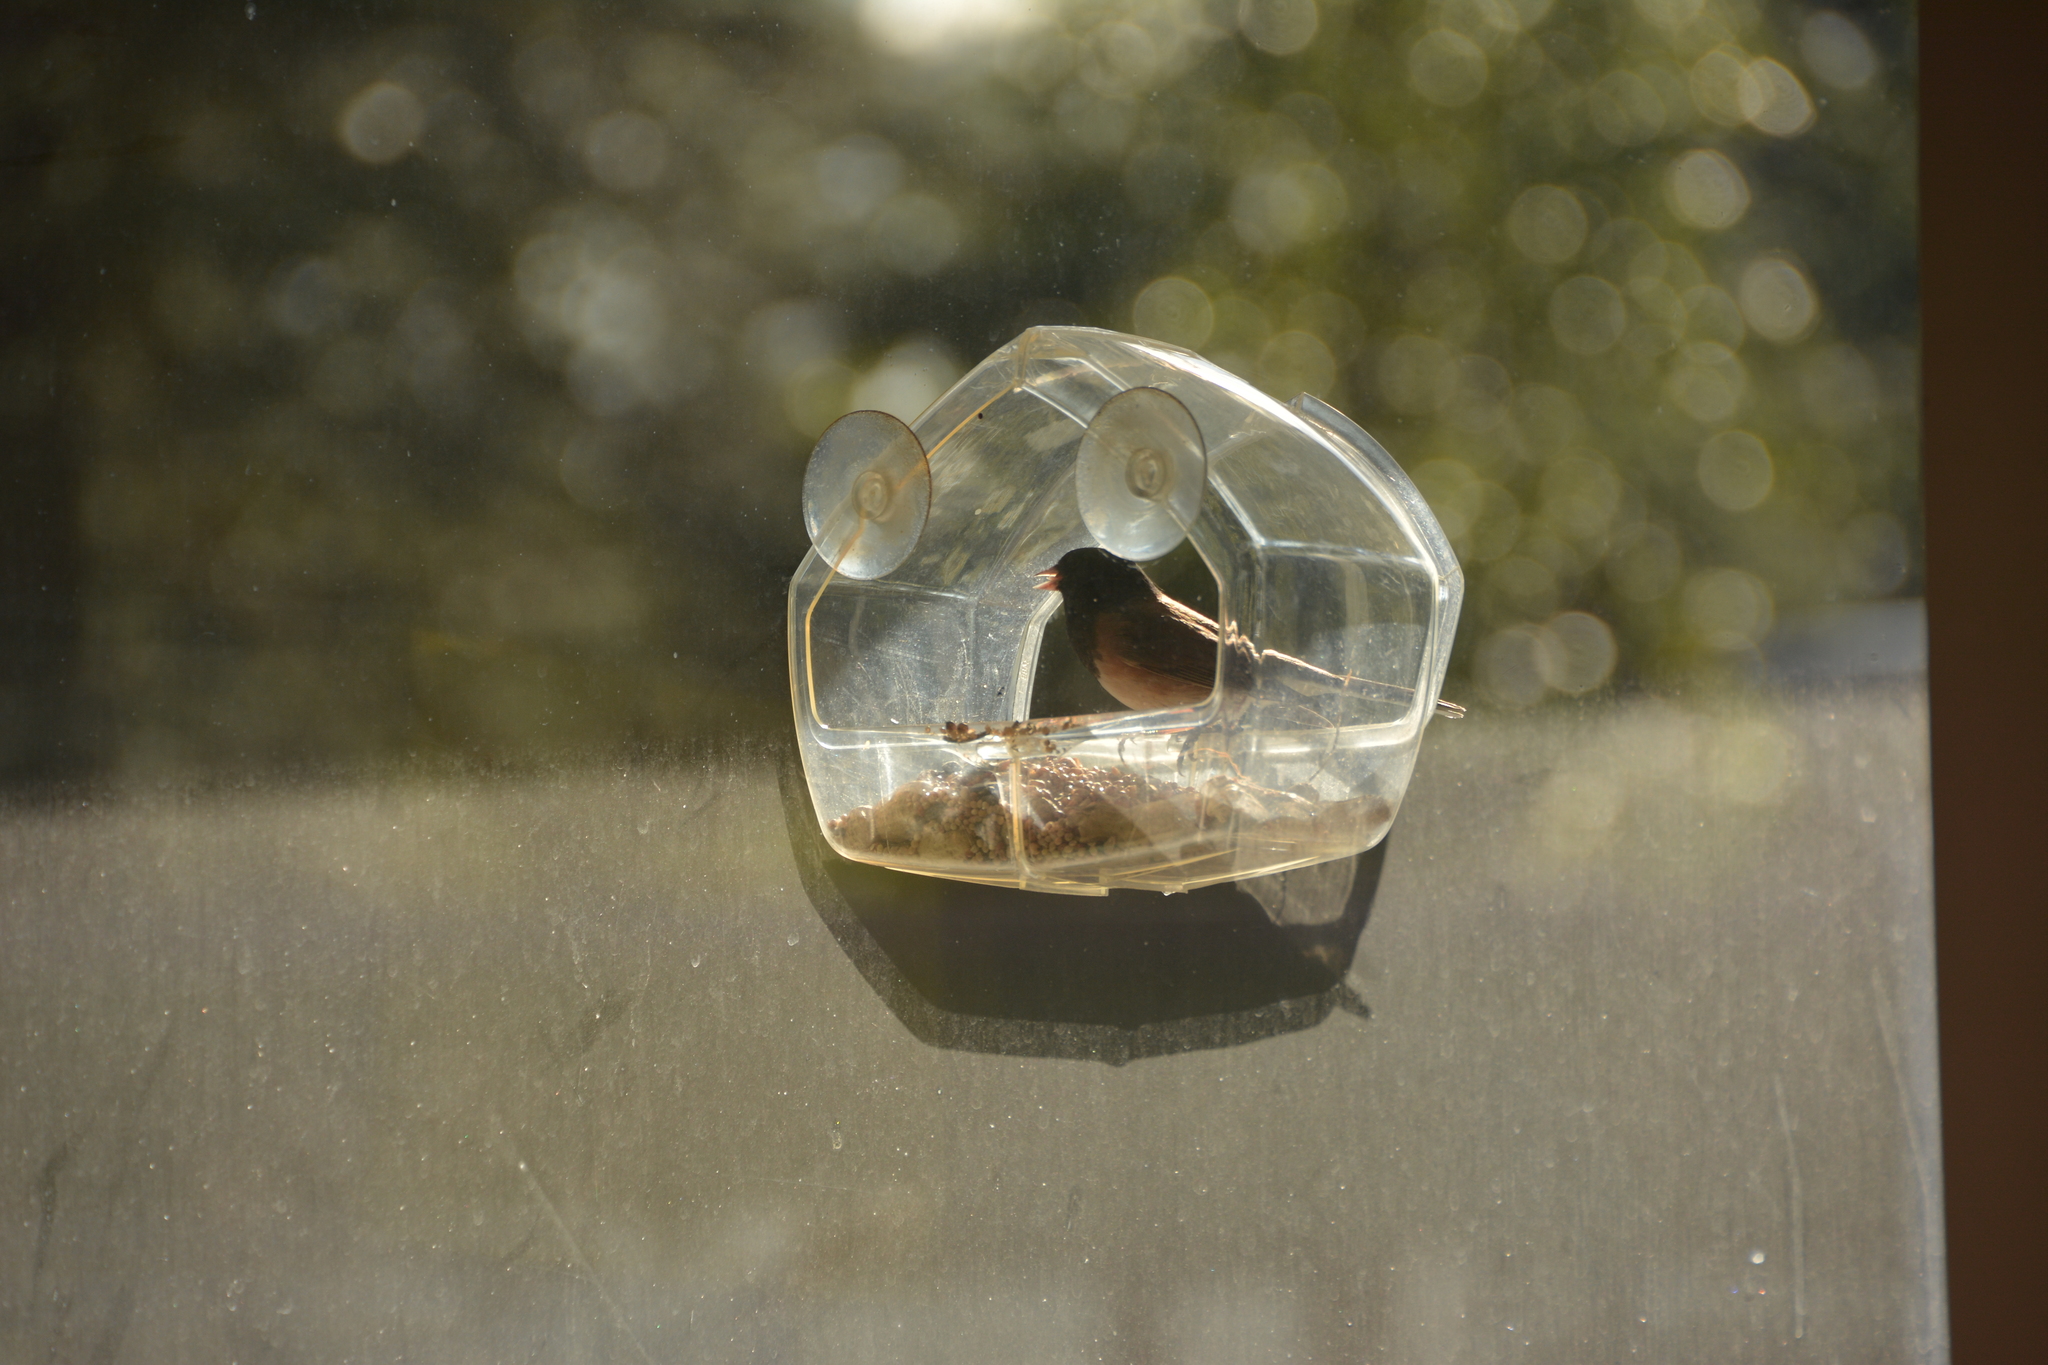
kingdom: Animalia
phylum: Chordata
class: Aves
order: Passeriformes
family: Passerellidae
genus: Junco
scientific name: Junco hyemalis
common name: Dark-eyed junco
